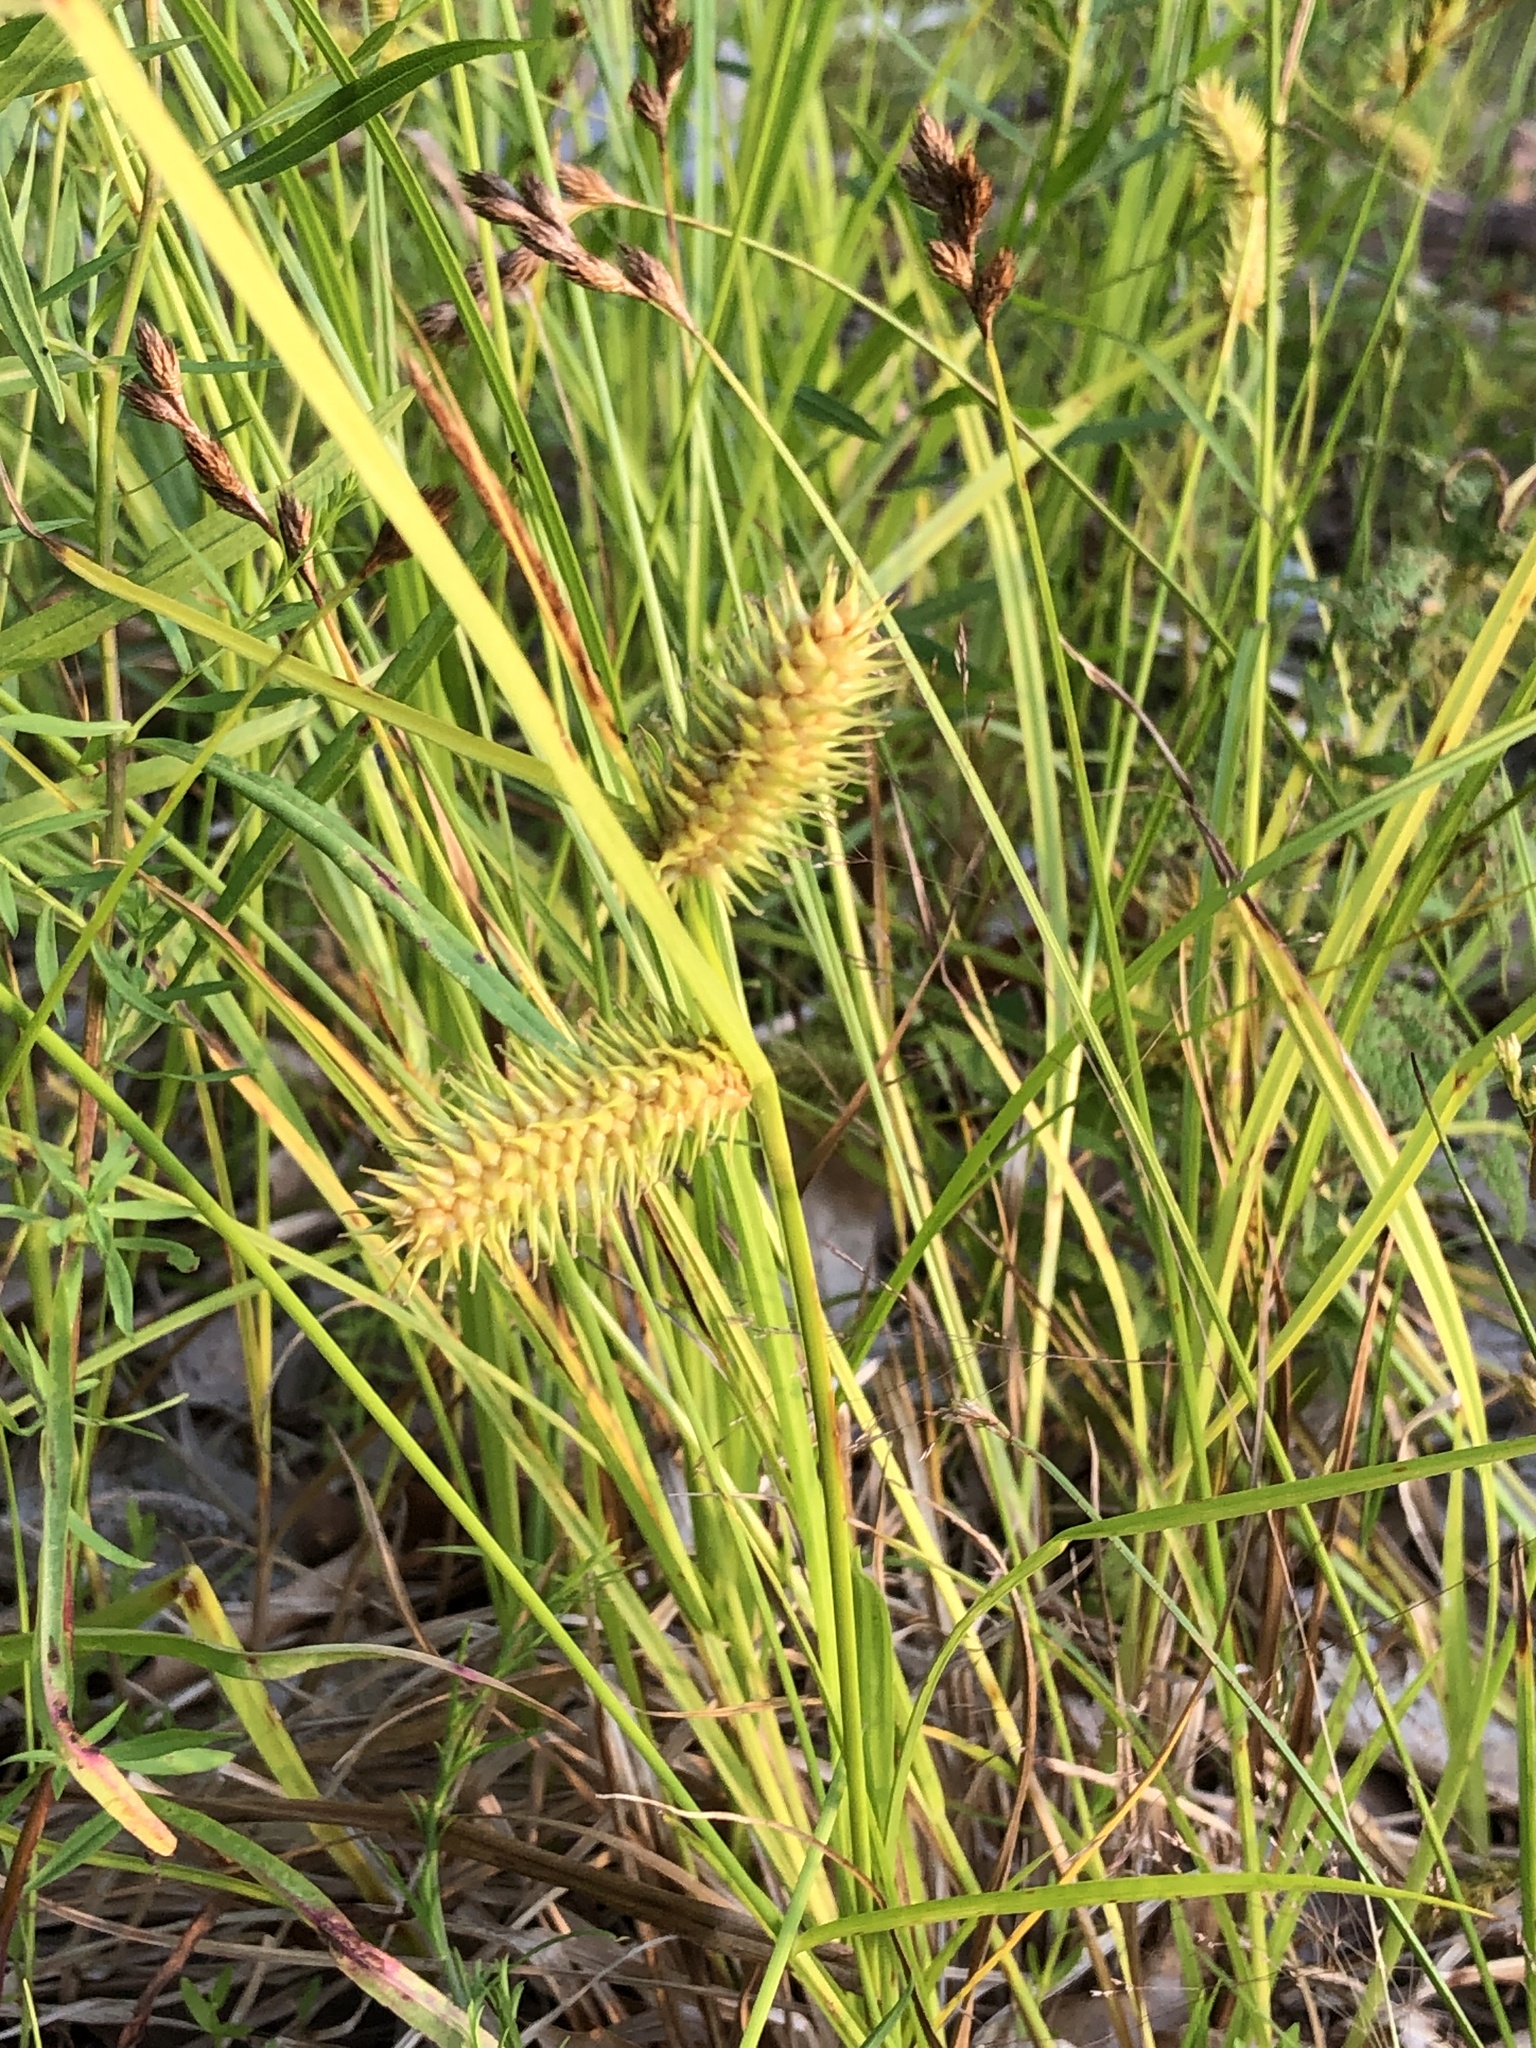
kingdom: Plantae
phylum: Tracheophyta
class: Liliopsida
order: Poales
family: Cyperaceae
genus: Carex
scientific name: Carex lurida
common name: Sallow sedge
